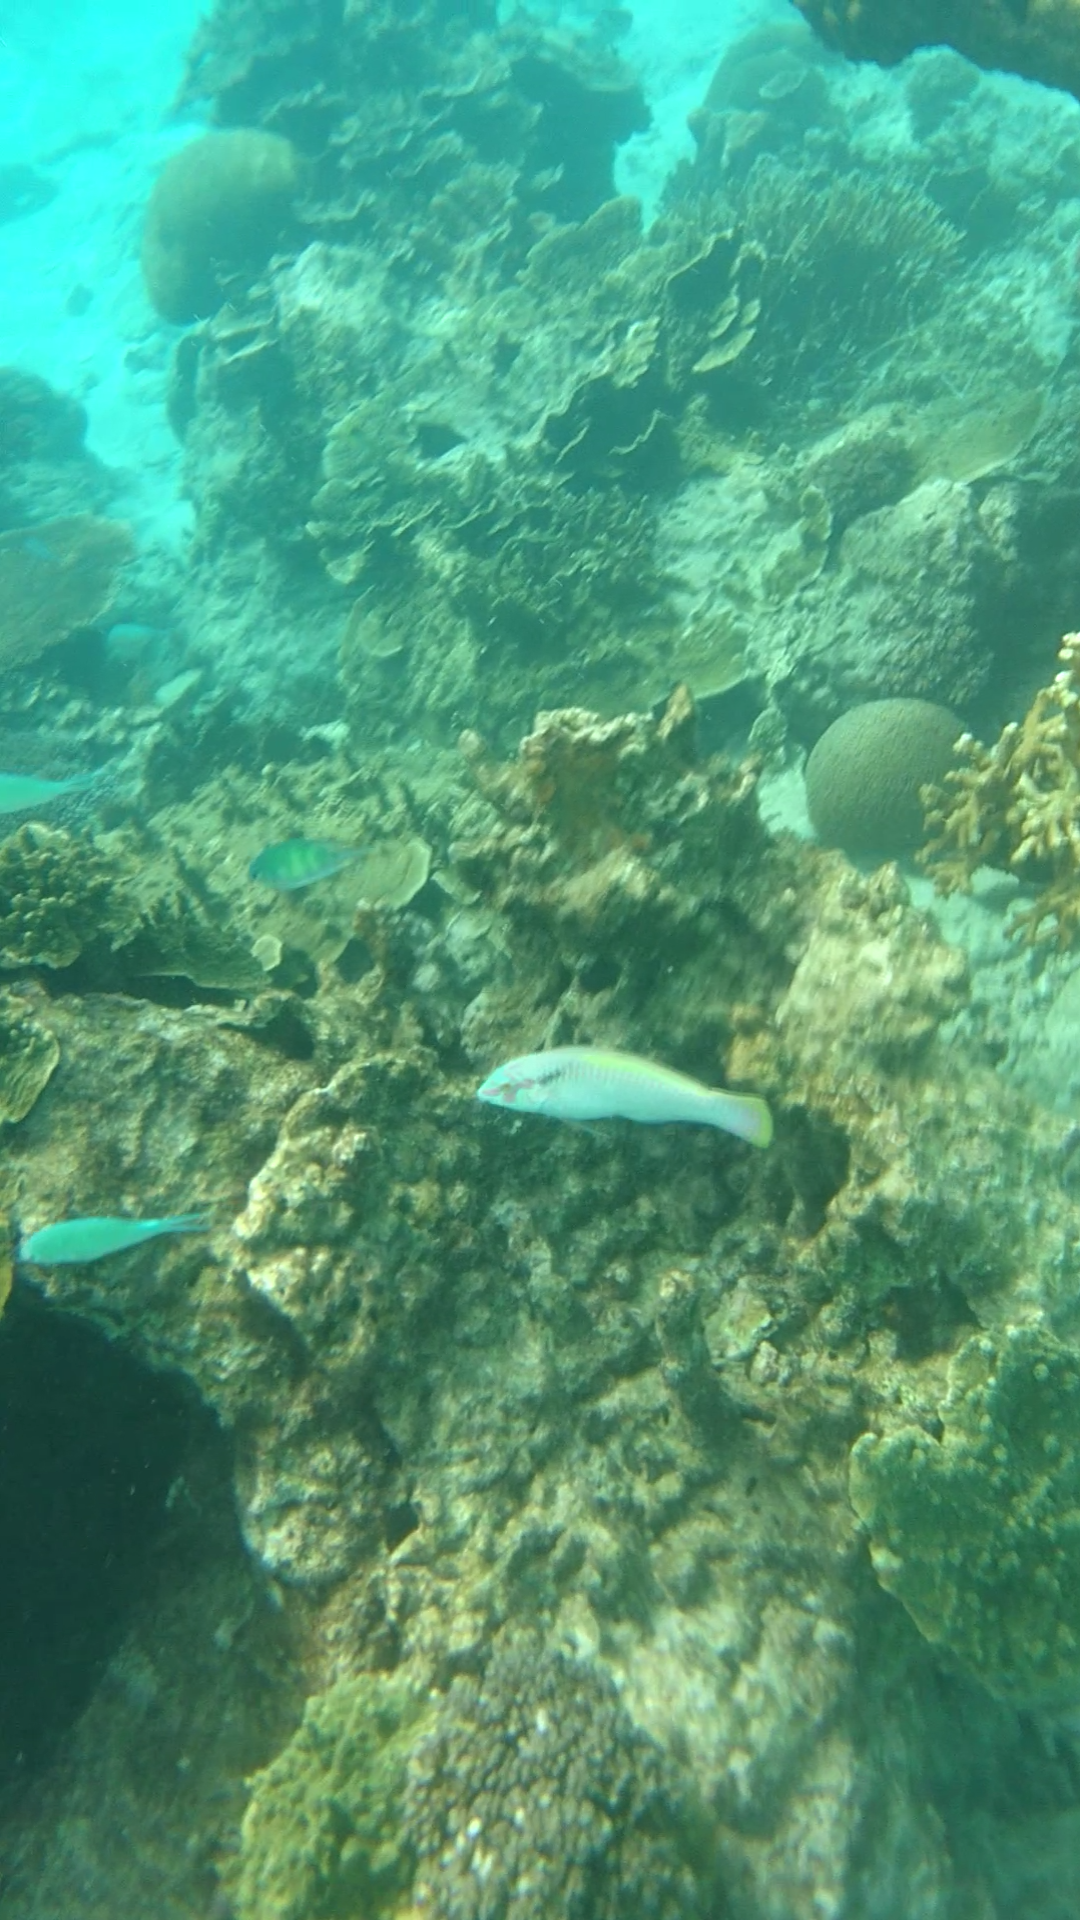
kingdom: Animalia
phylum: Chordata
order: Perciformes
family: Labridae
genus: Halichoeres
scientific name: Halichoeres scapularis
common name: Brownbanded wrasse
